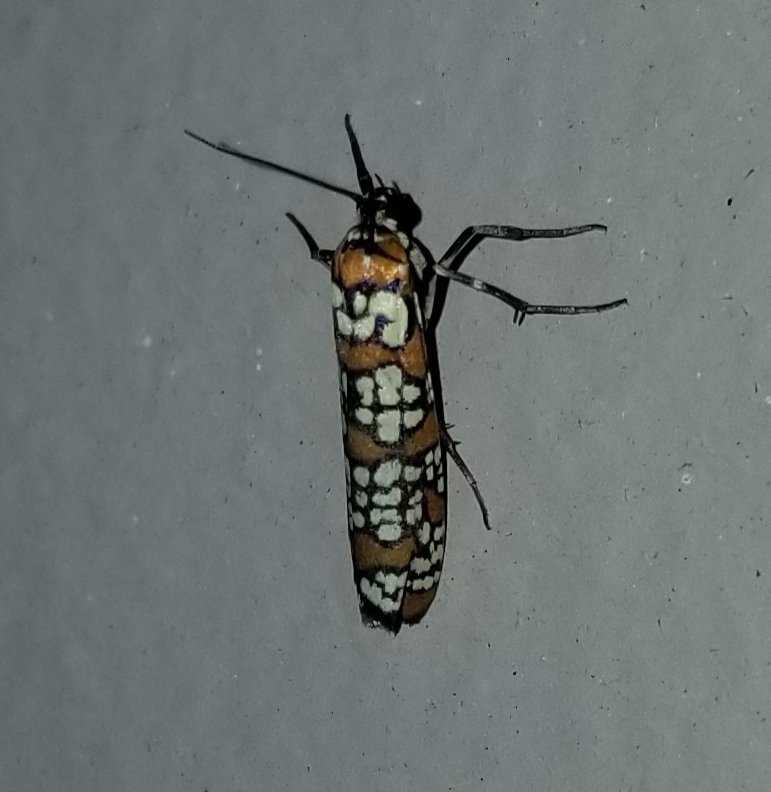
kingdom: Animalia
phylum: Arthropoda
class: Insecta
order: Lepidoptera
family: Attevidae
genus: Atteva
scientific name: Atteva punctella
